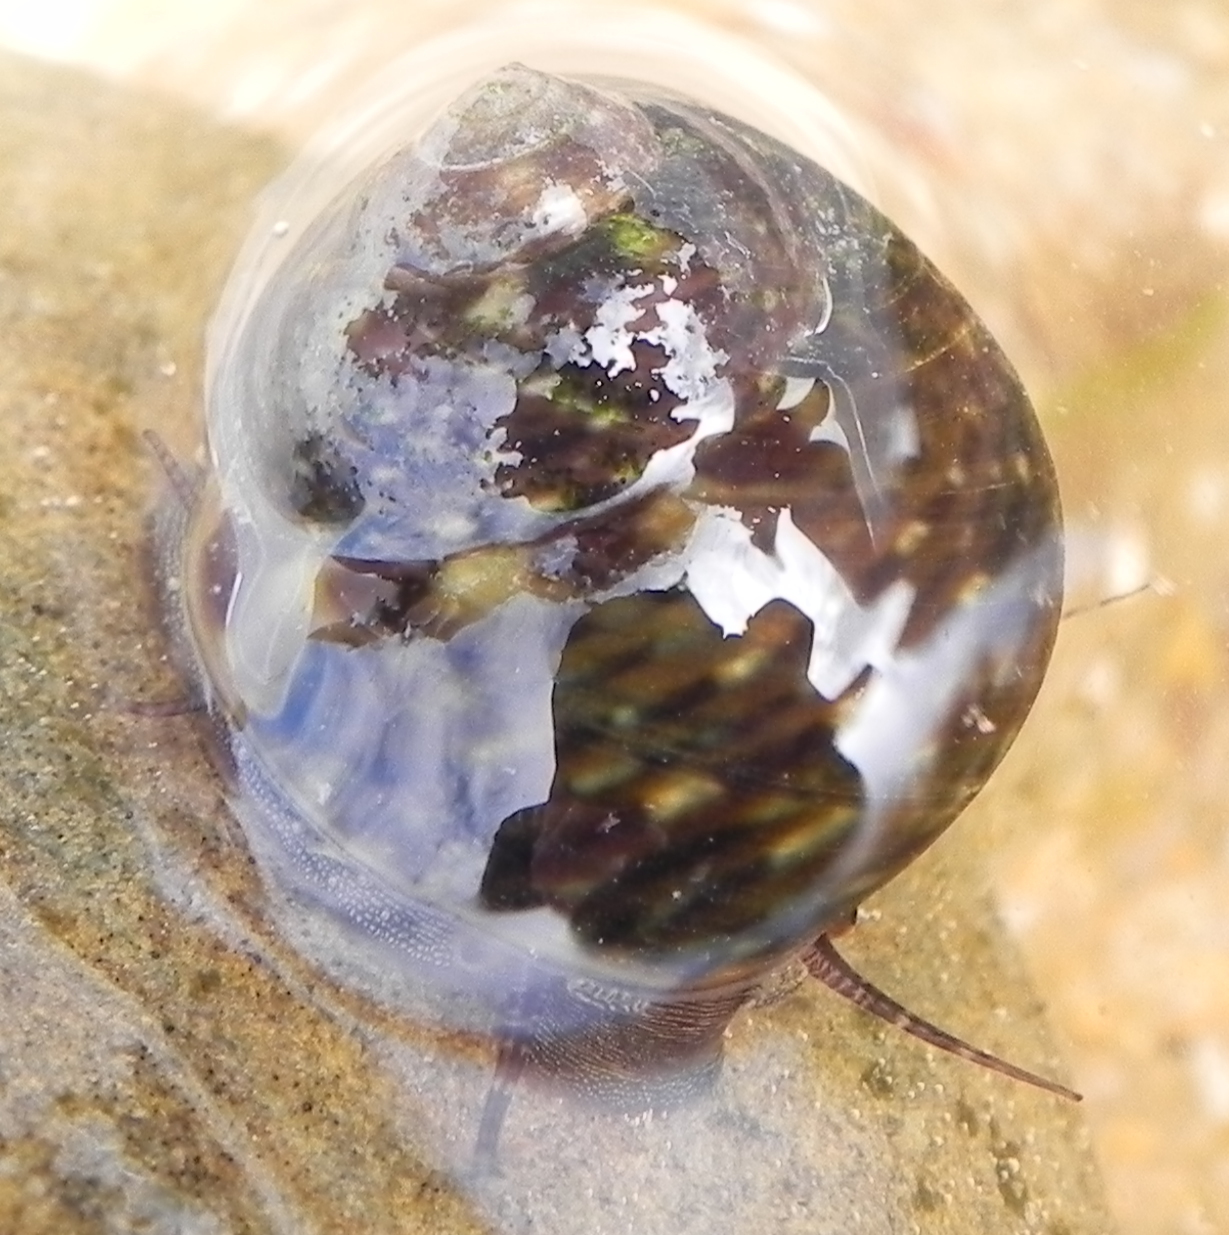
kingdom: Animalia
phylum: Mollusca
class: Gastropoda
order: Trochida
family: Trochidae
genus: Monodonta
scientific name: Monodonta australis
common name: Toothed topshell
